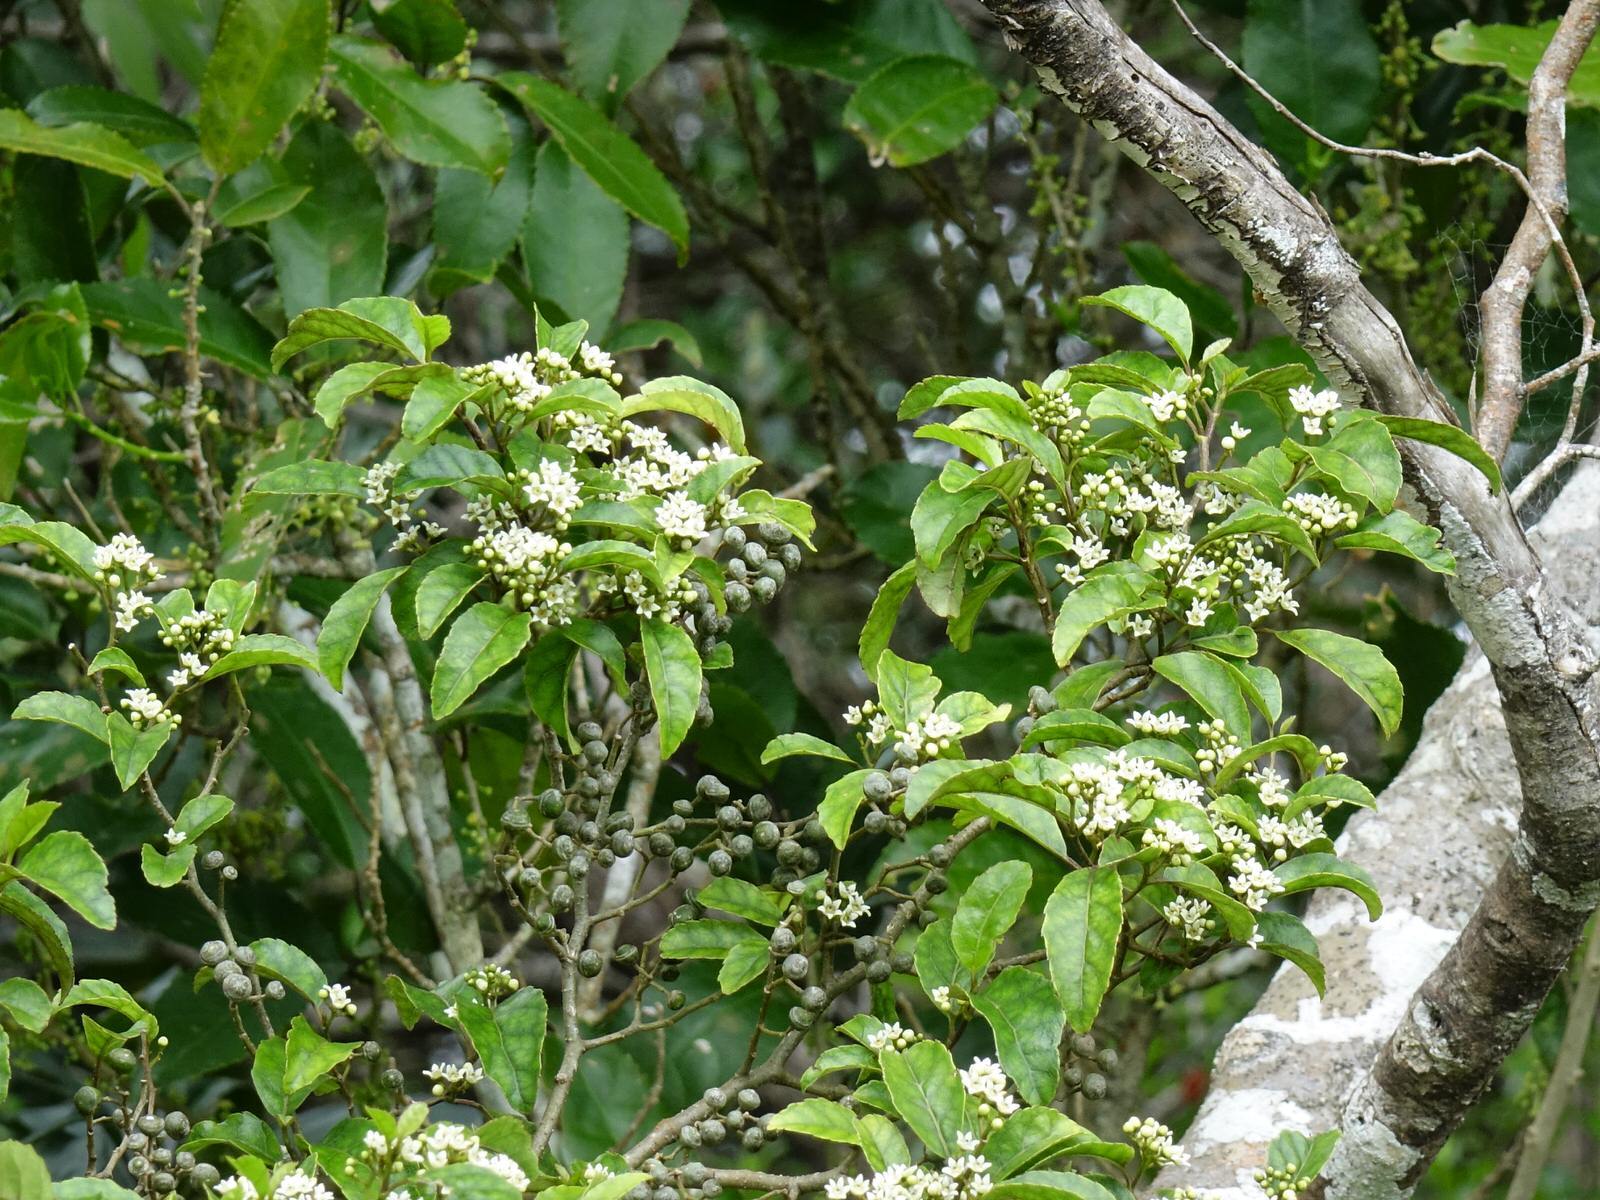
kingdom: Plantae
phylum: Tracheophyta
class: Magnoliopsida
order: Asterales
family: Rousseaceae
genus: Carpodetus
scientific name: Carpodetus serratus
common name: White mapau
